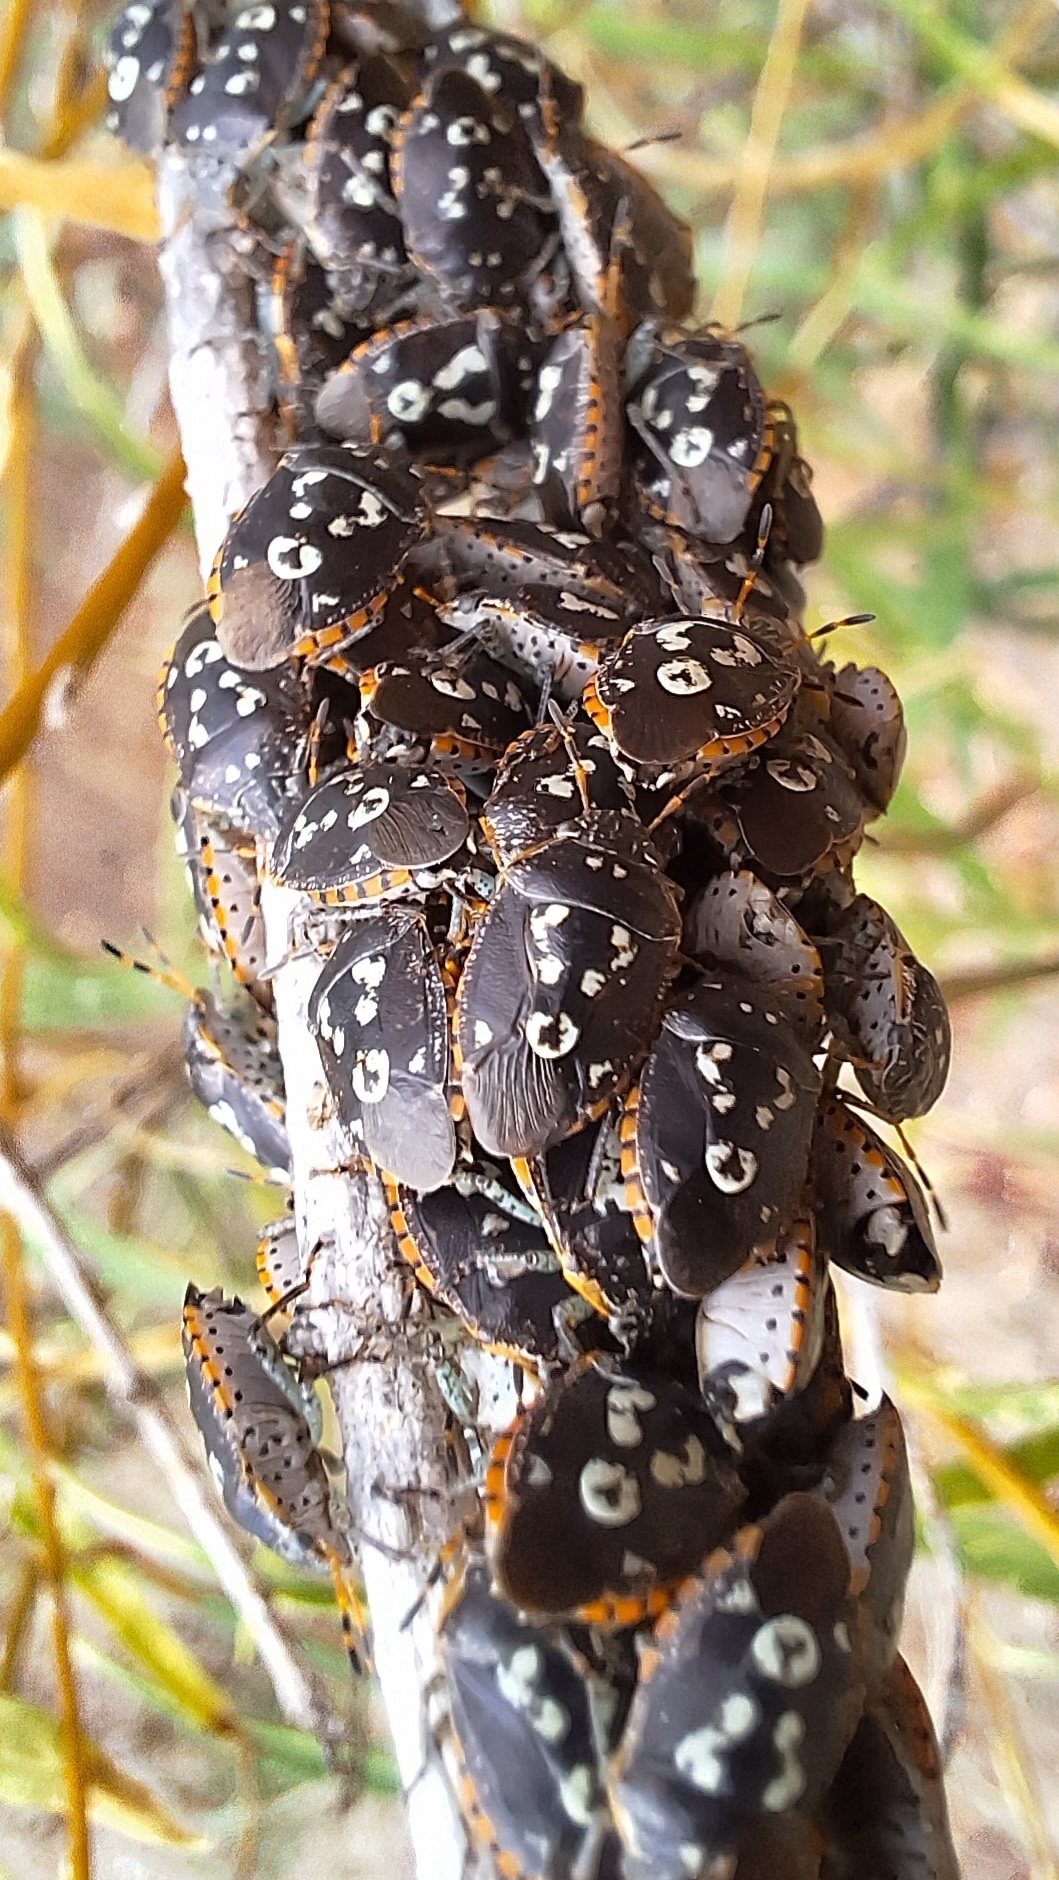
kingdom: Animalia
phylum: Arthropoda
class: Insecta
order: Hemiptera
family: Pentatomidae
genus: Pseudapines
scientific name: Pseudapines
